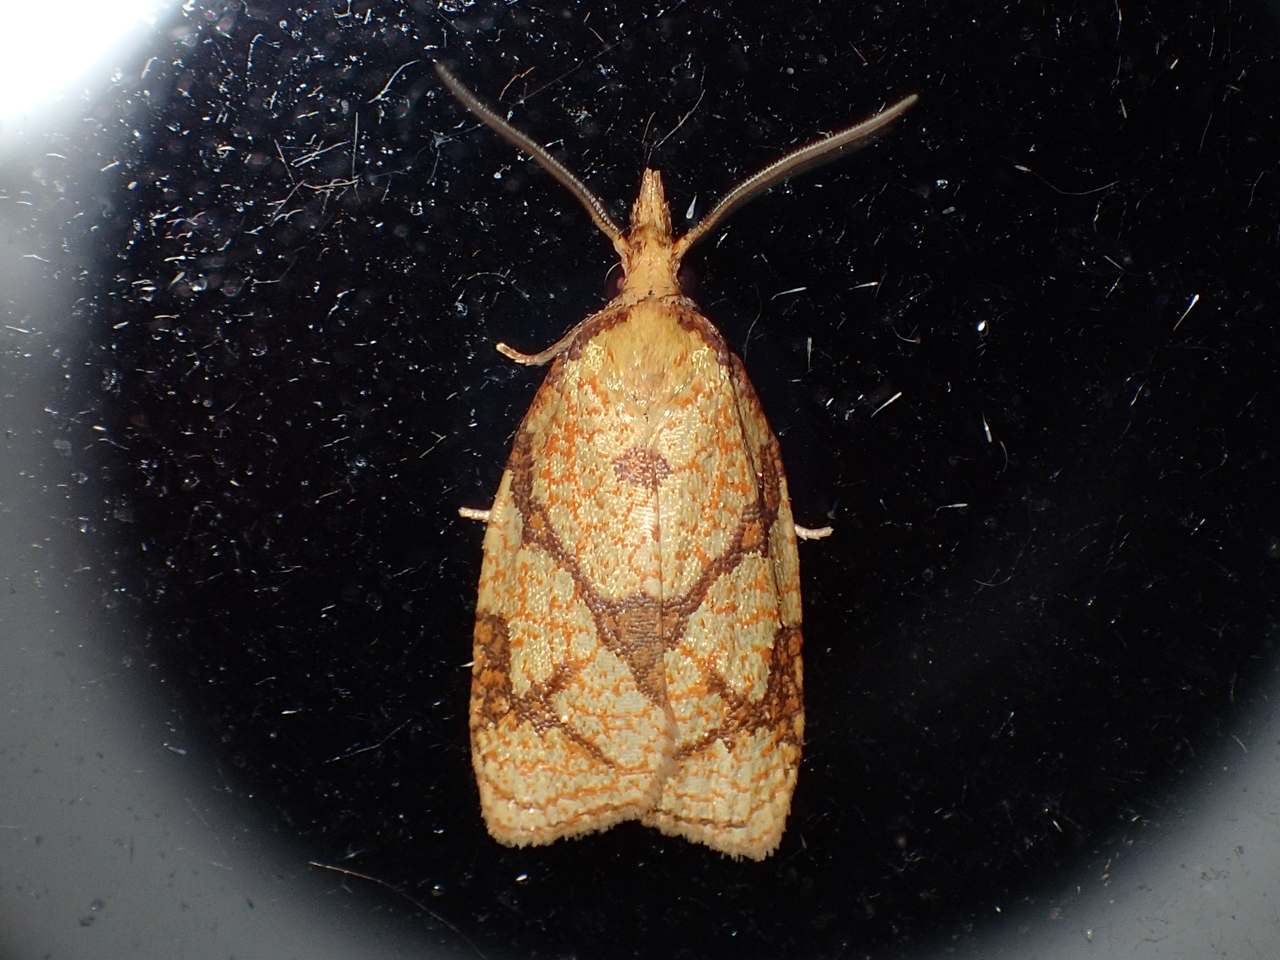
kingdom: Animalia
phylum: Arthropoda
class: Insecta
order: Lepidoptera
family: Tortricidae
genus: Cenopis
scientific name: Cenopis reticulatana
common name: Reticulated fruitworm moth
